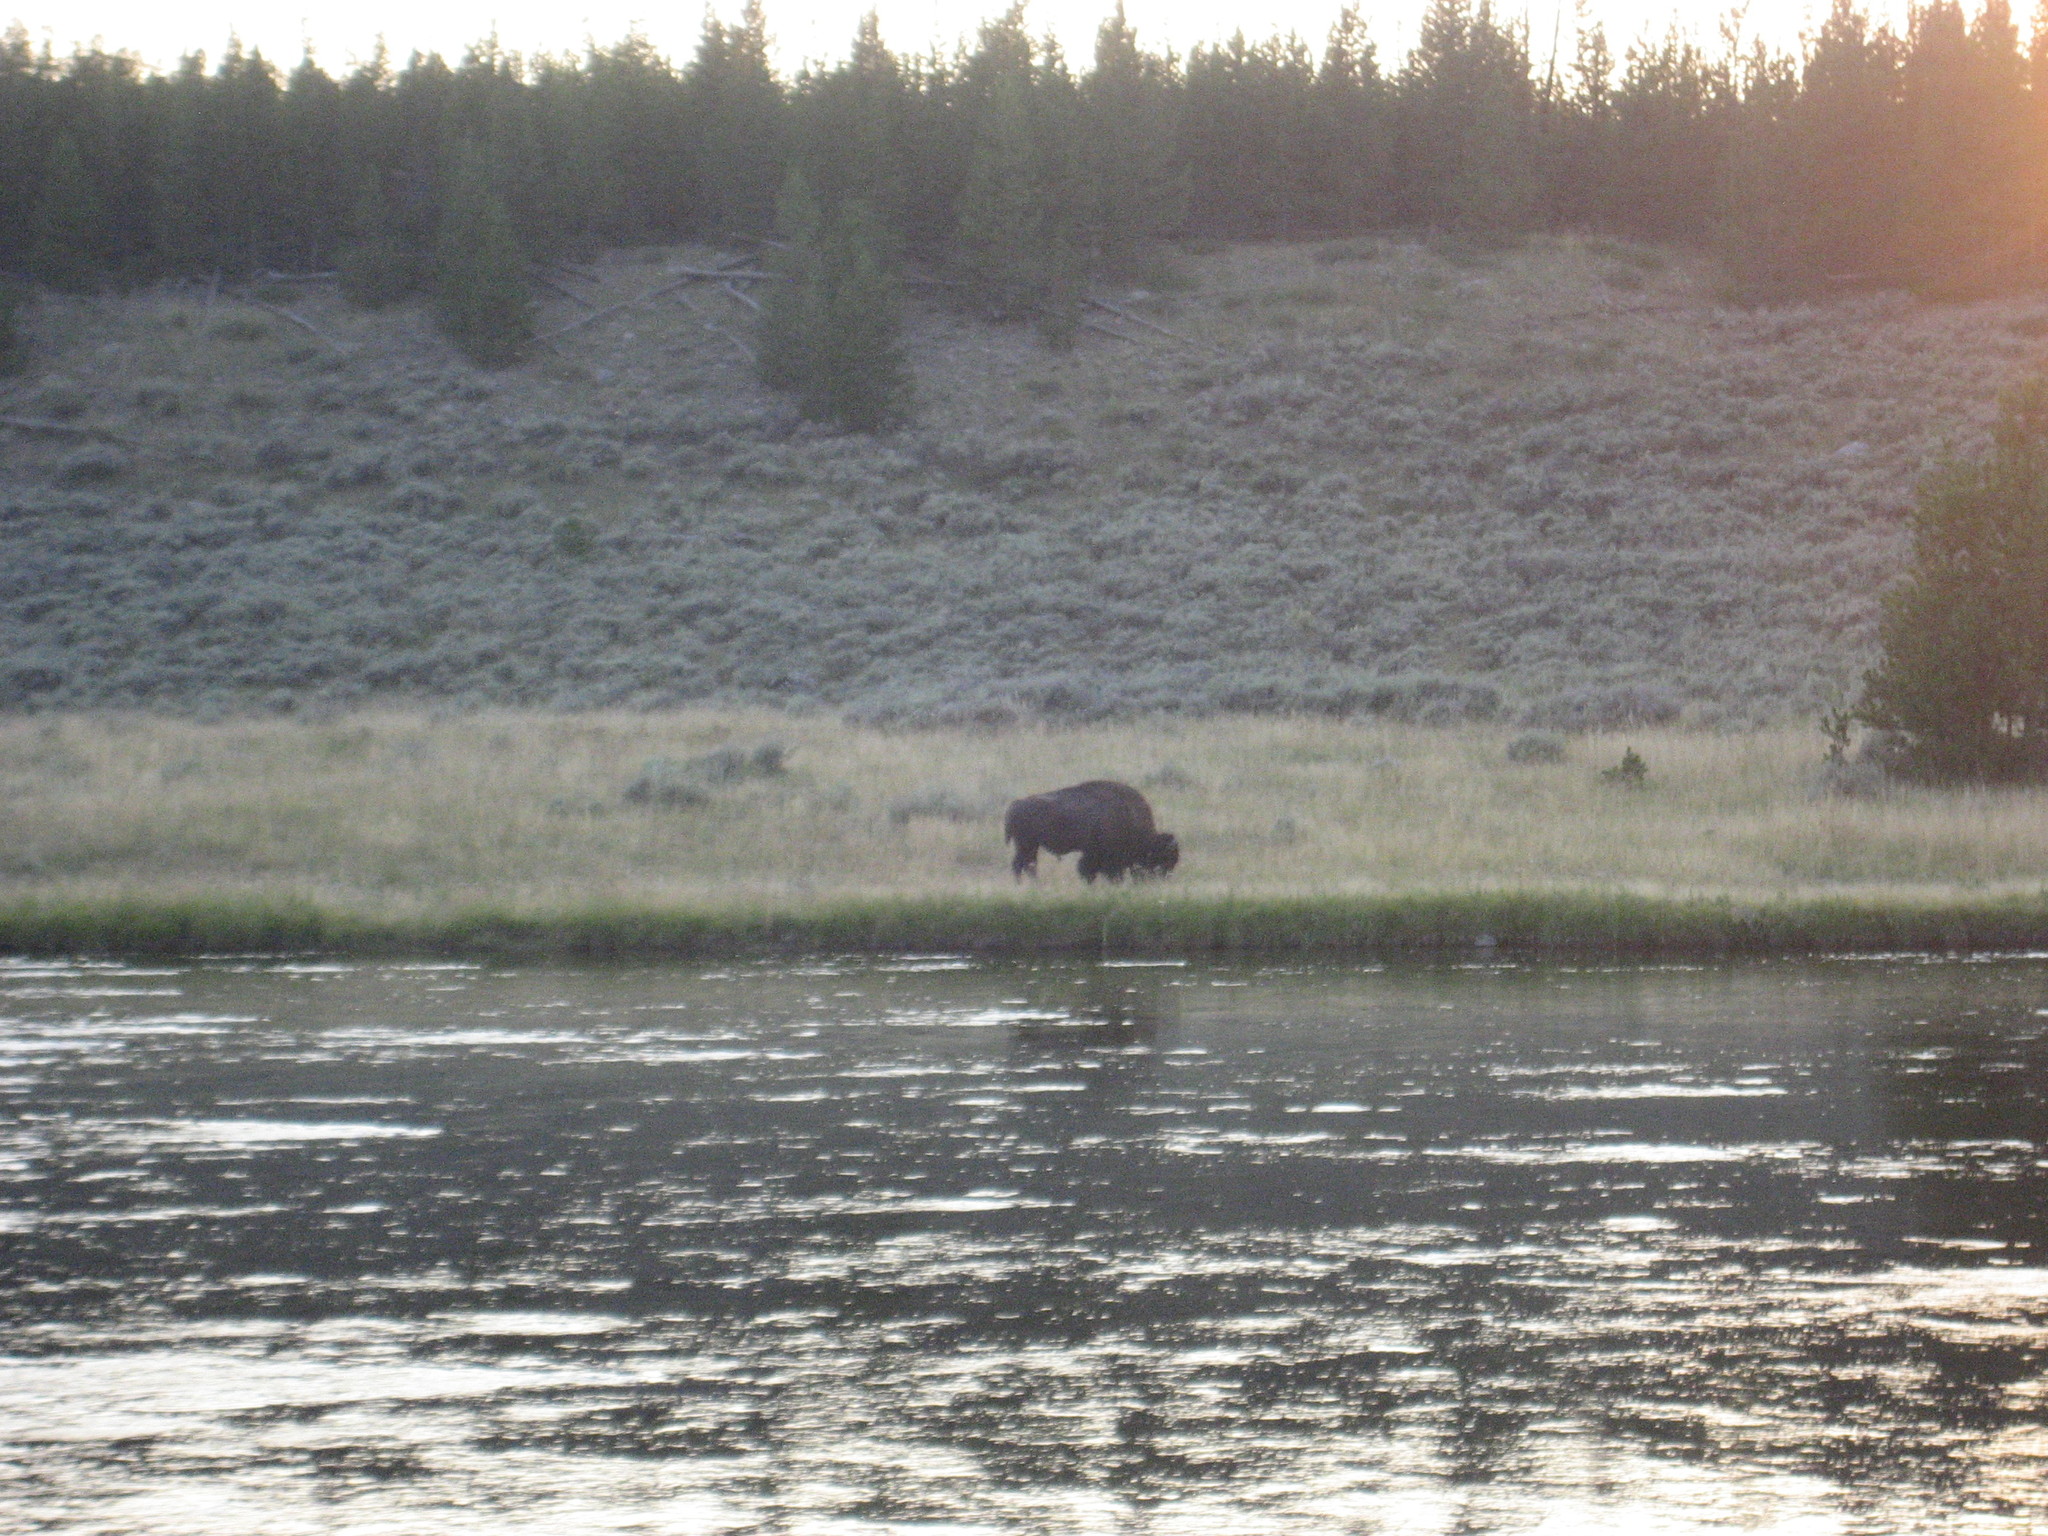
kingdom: Animalia
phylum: Chordata
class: Mammalia
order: Artiodactyla
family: Bovidae
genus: Bison
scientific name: Bison bison
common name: American bison
